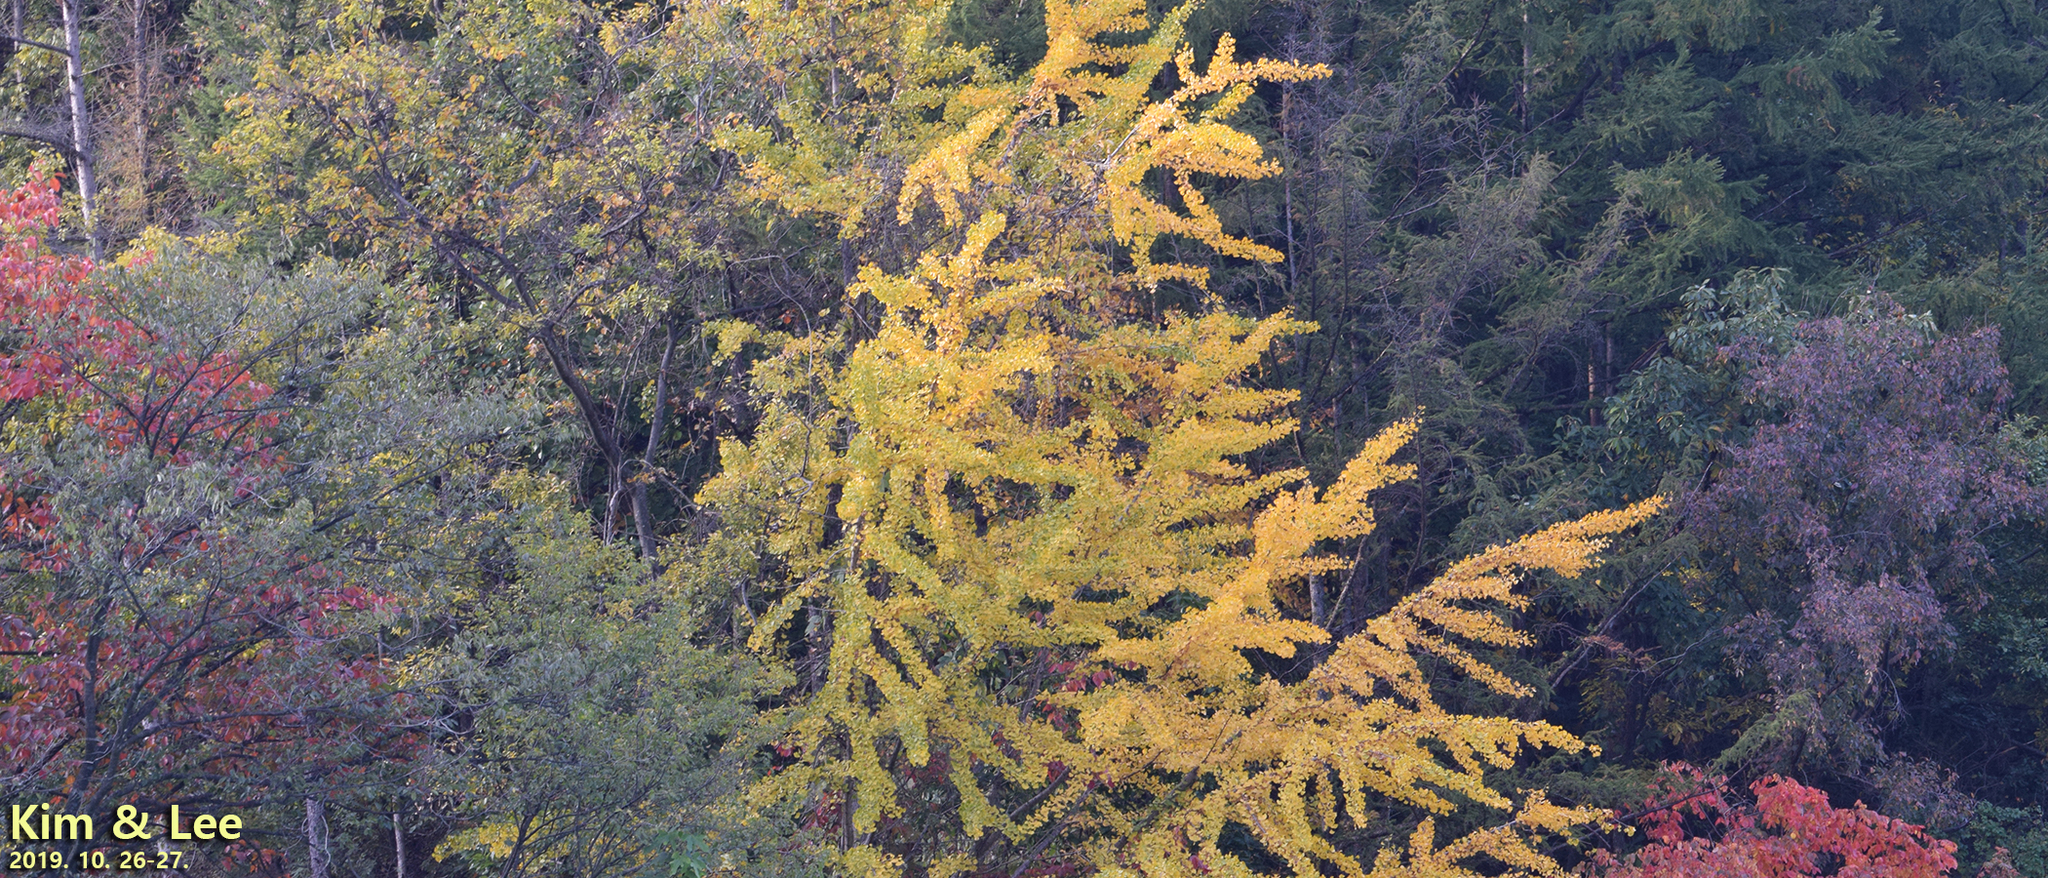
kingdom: Plantae
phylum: Tracheophyta
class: Ginkgoopsida
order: Ginkgoales
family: Ginkgoaceae
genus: Ginkgo
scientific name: Ginkgo biloba
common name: Ginkgo
